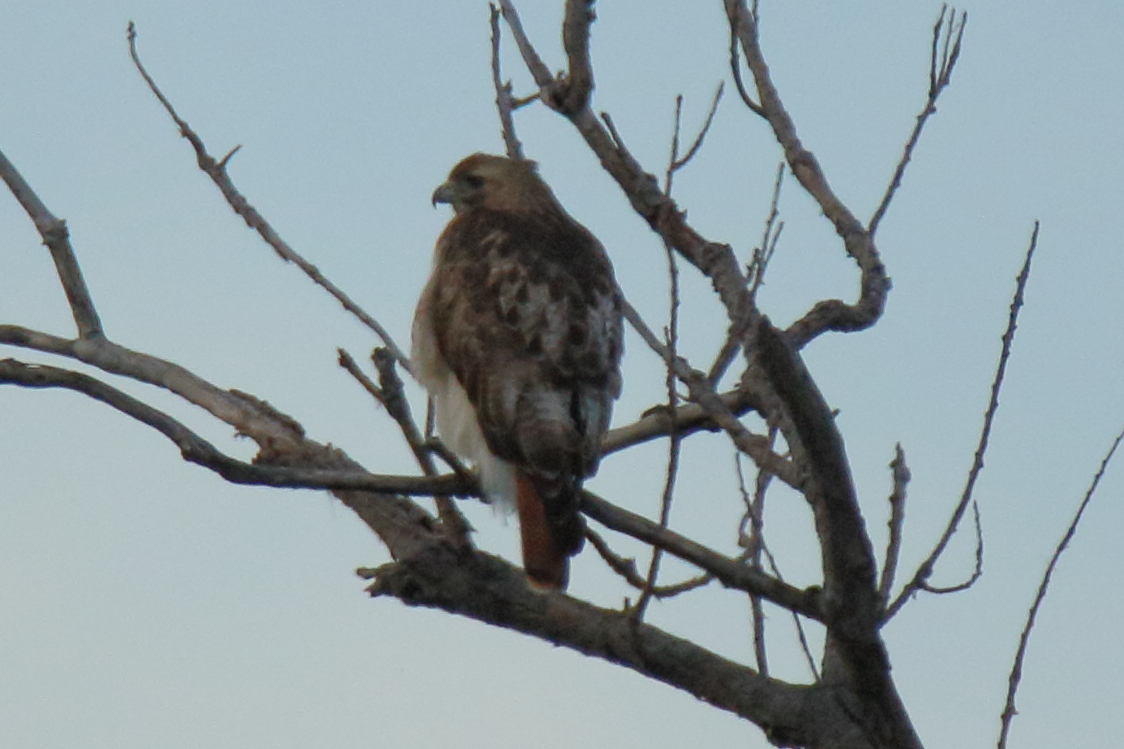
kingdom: Animalia
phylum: Chordata
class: Aves
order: Accipitriformes
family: Accipitridae
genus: Buteo
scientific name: Buteo jamaicensis
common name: Red-tailed hawk
